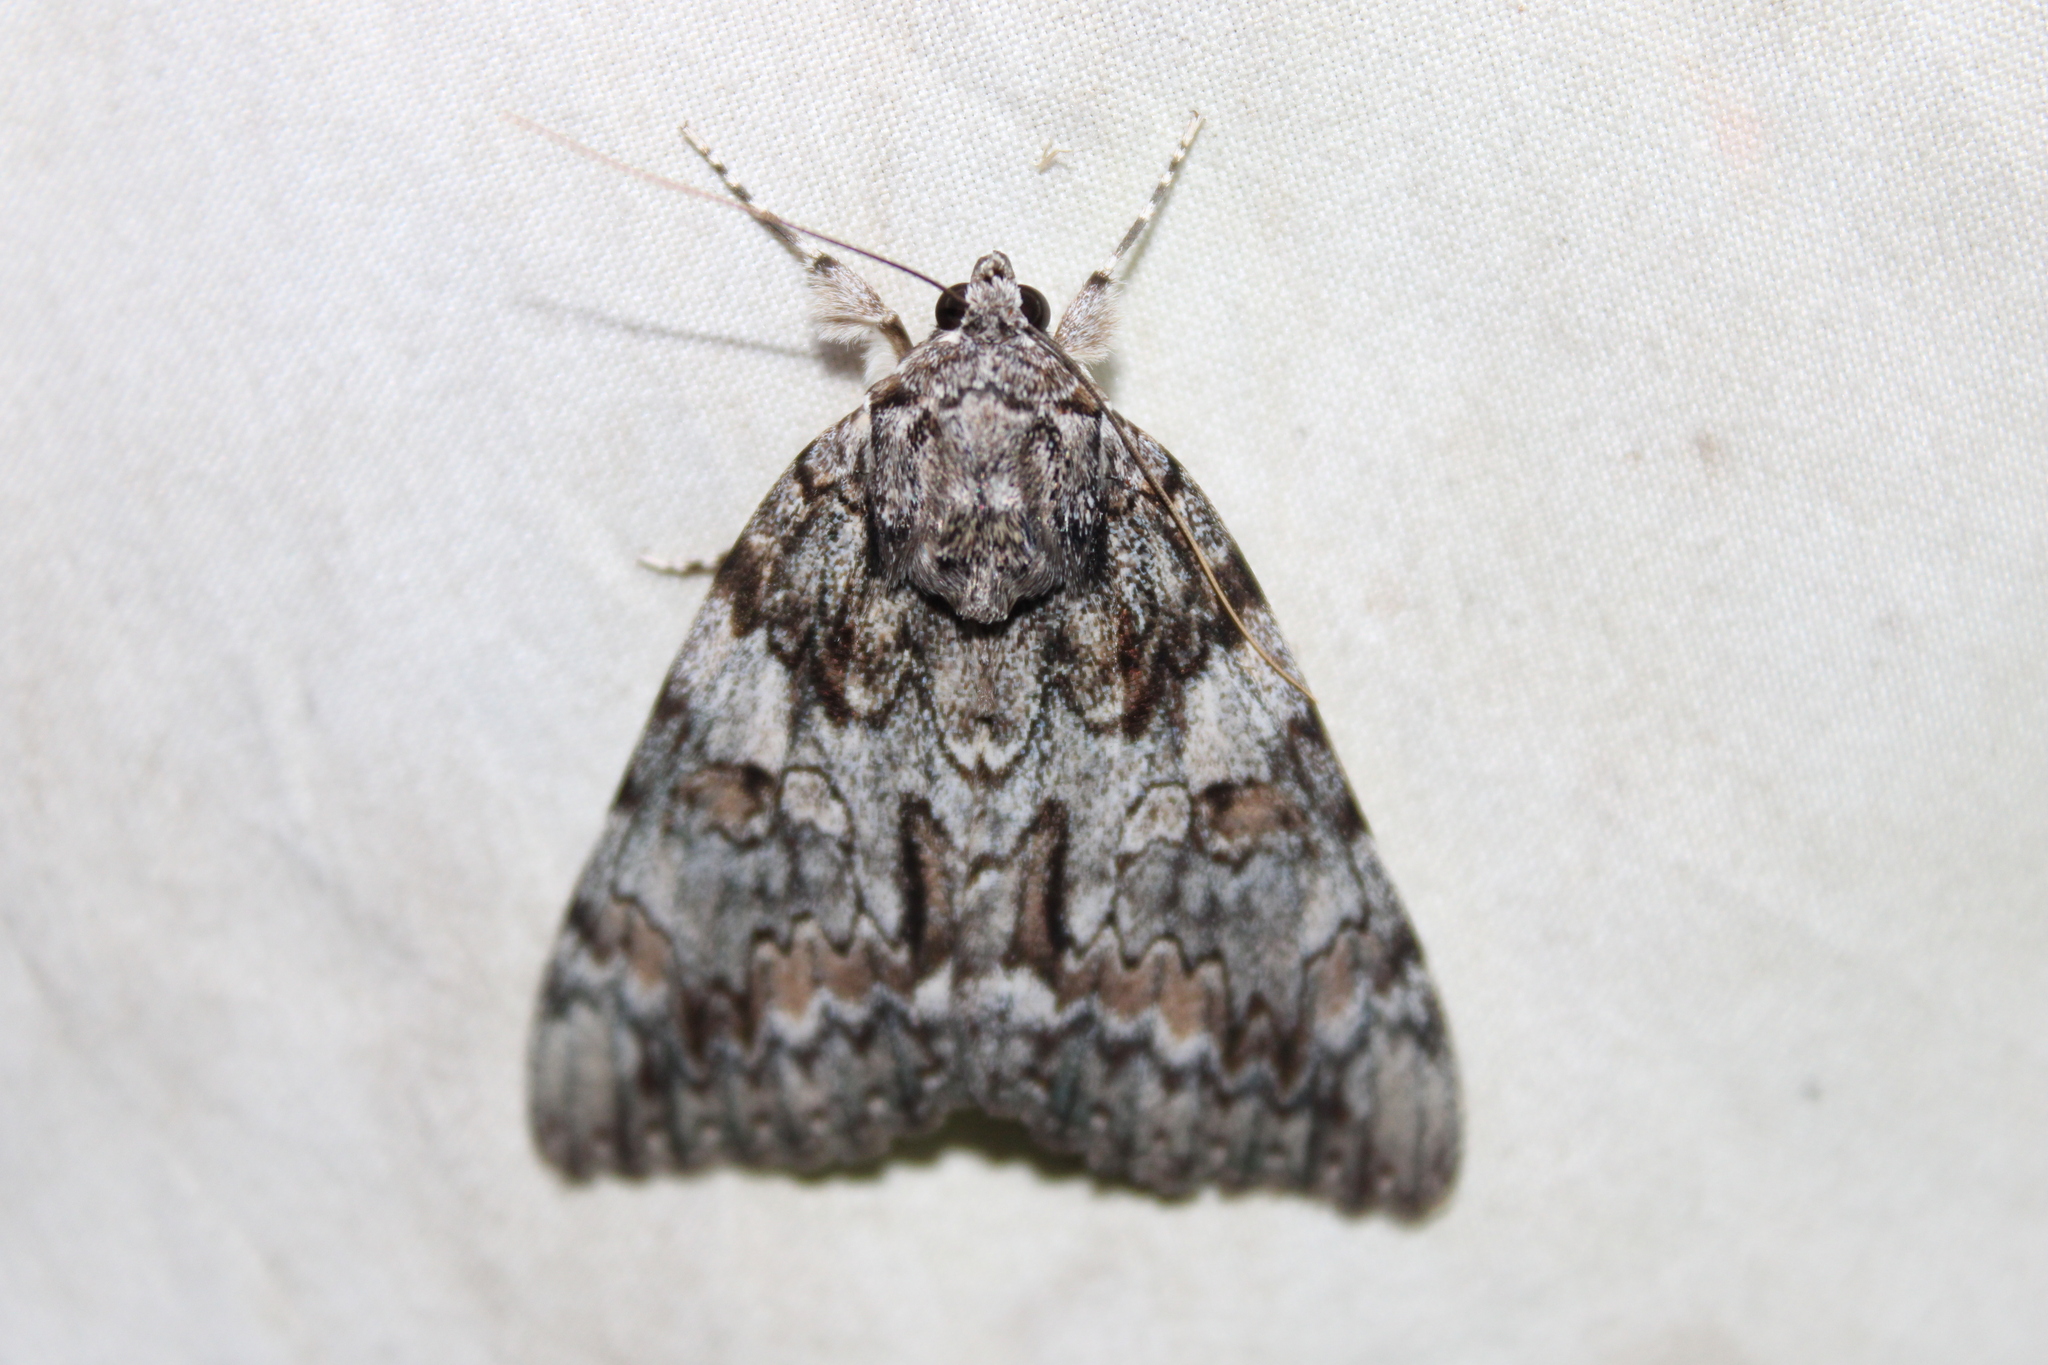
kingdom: Animalia
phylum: Arthropoda
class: Insecta
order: Lepidoptera
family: Erebidae
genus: Catocala
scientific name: Catocala palaeogama
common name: Oldwife underwing
